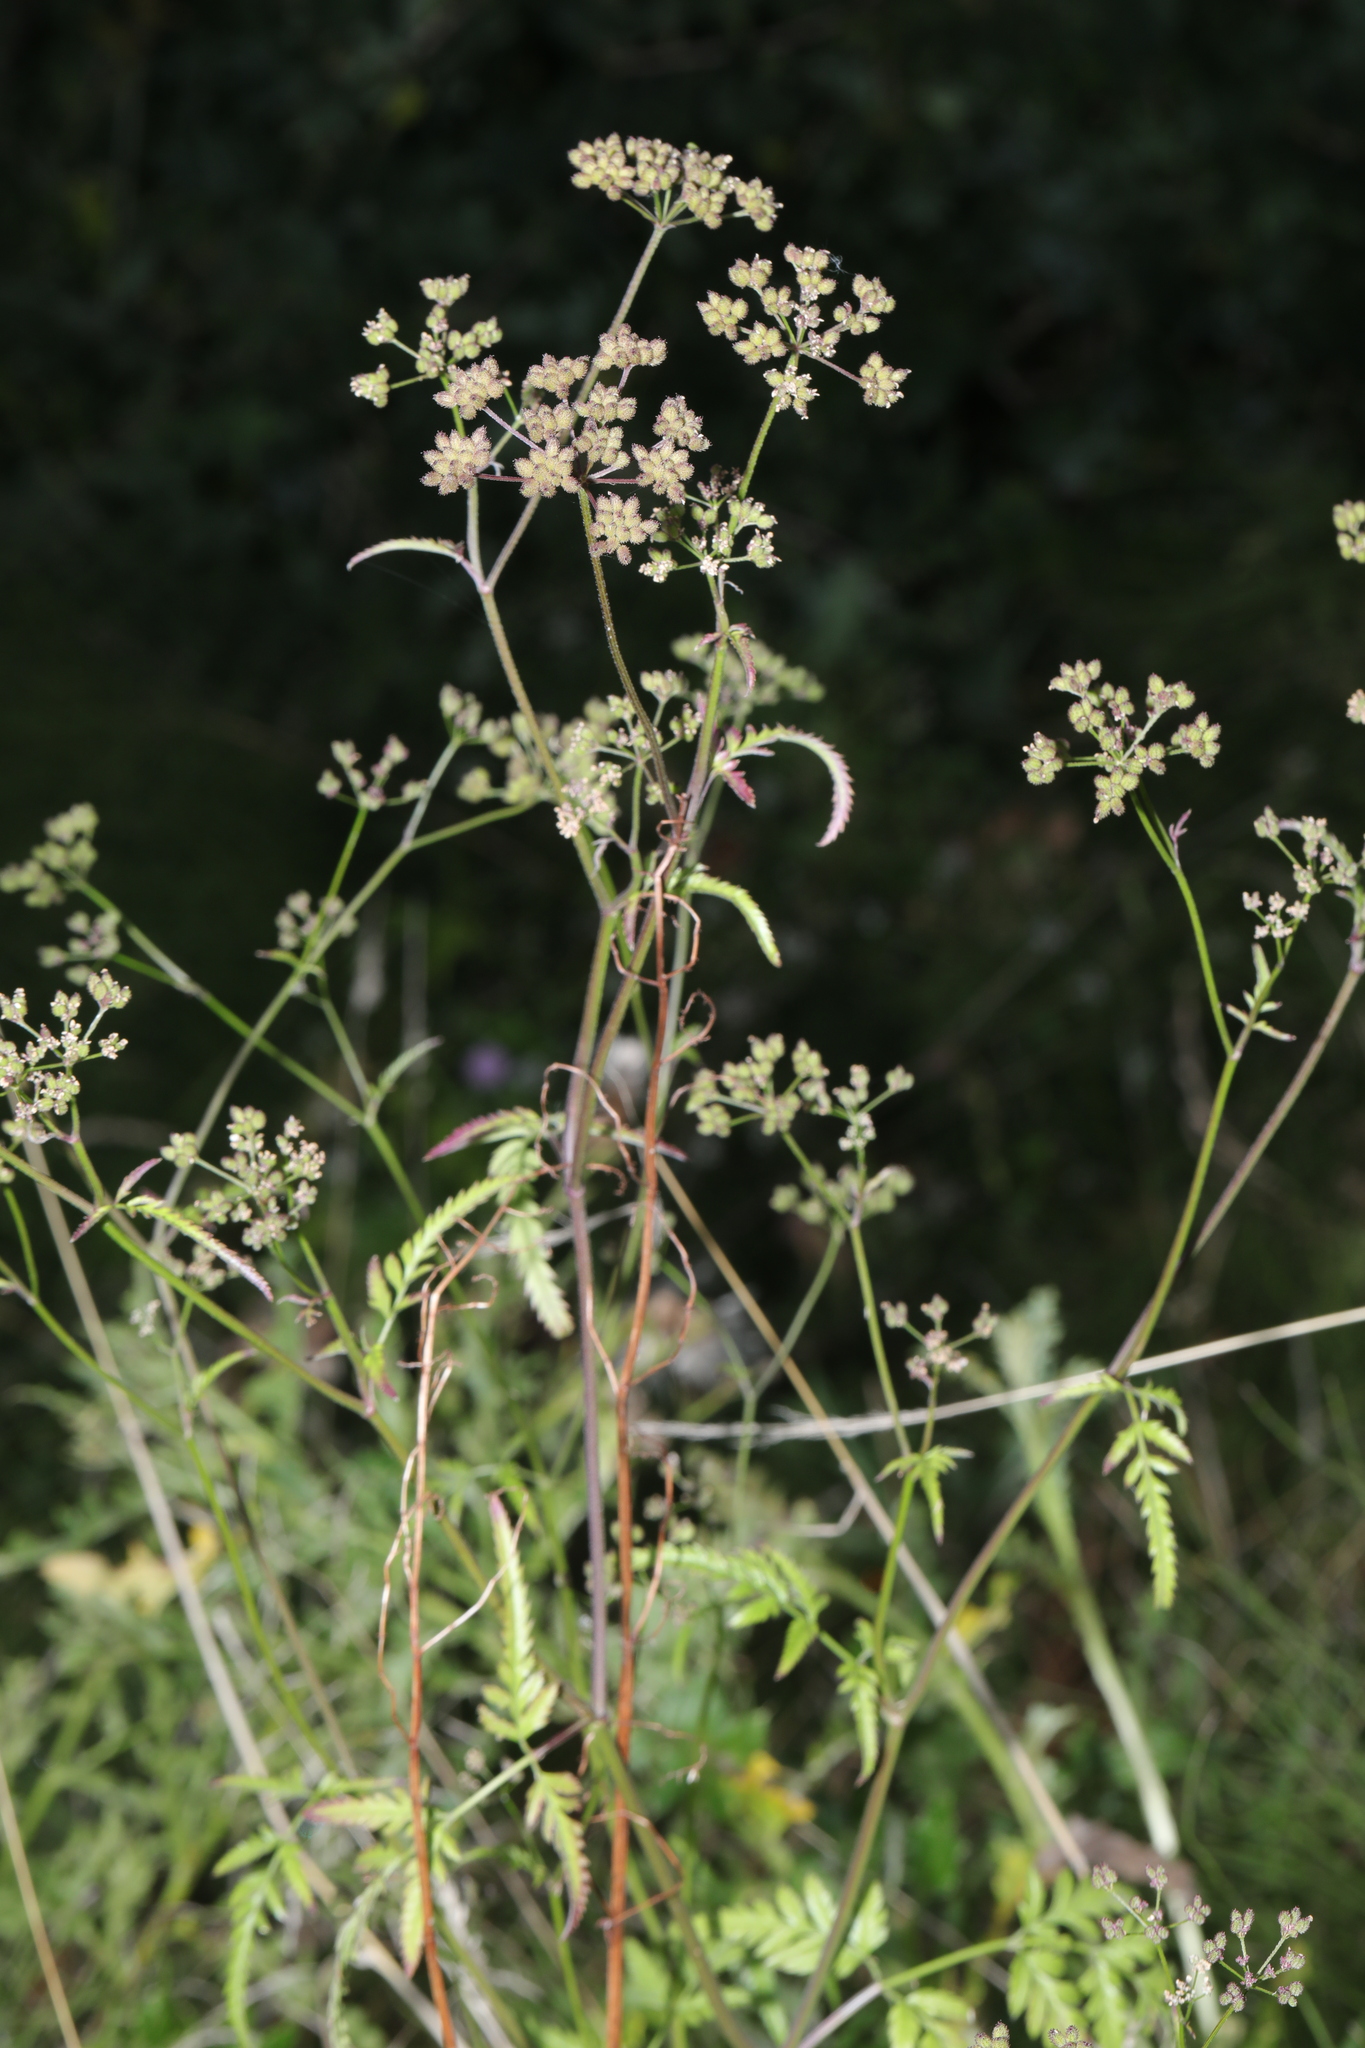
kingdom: Plantae
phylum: Tracheophyta
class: Magnoliopsida
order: Apiales
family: Apiaceae
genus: Torilis
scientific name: Torilis japonica
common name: Upright hedge-parsley
